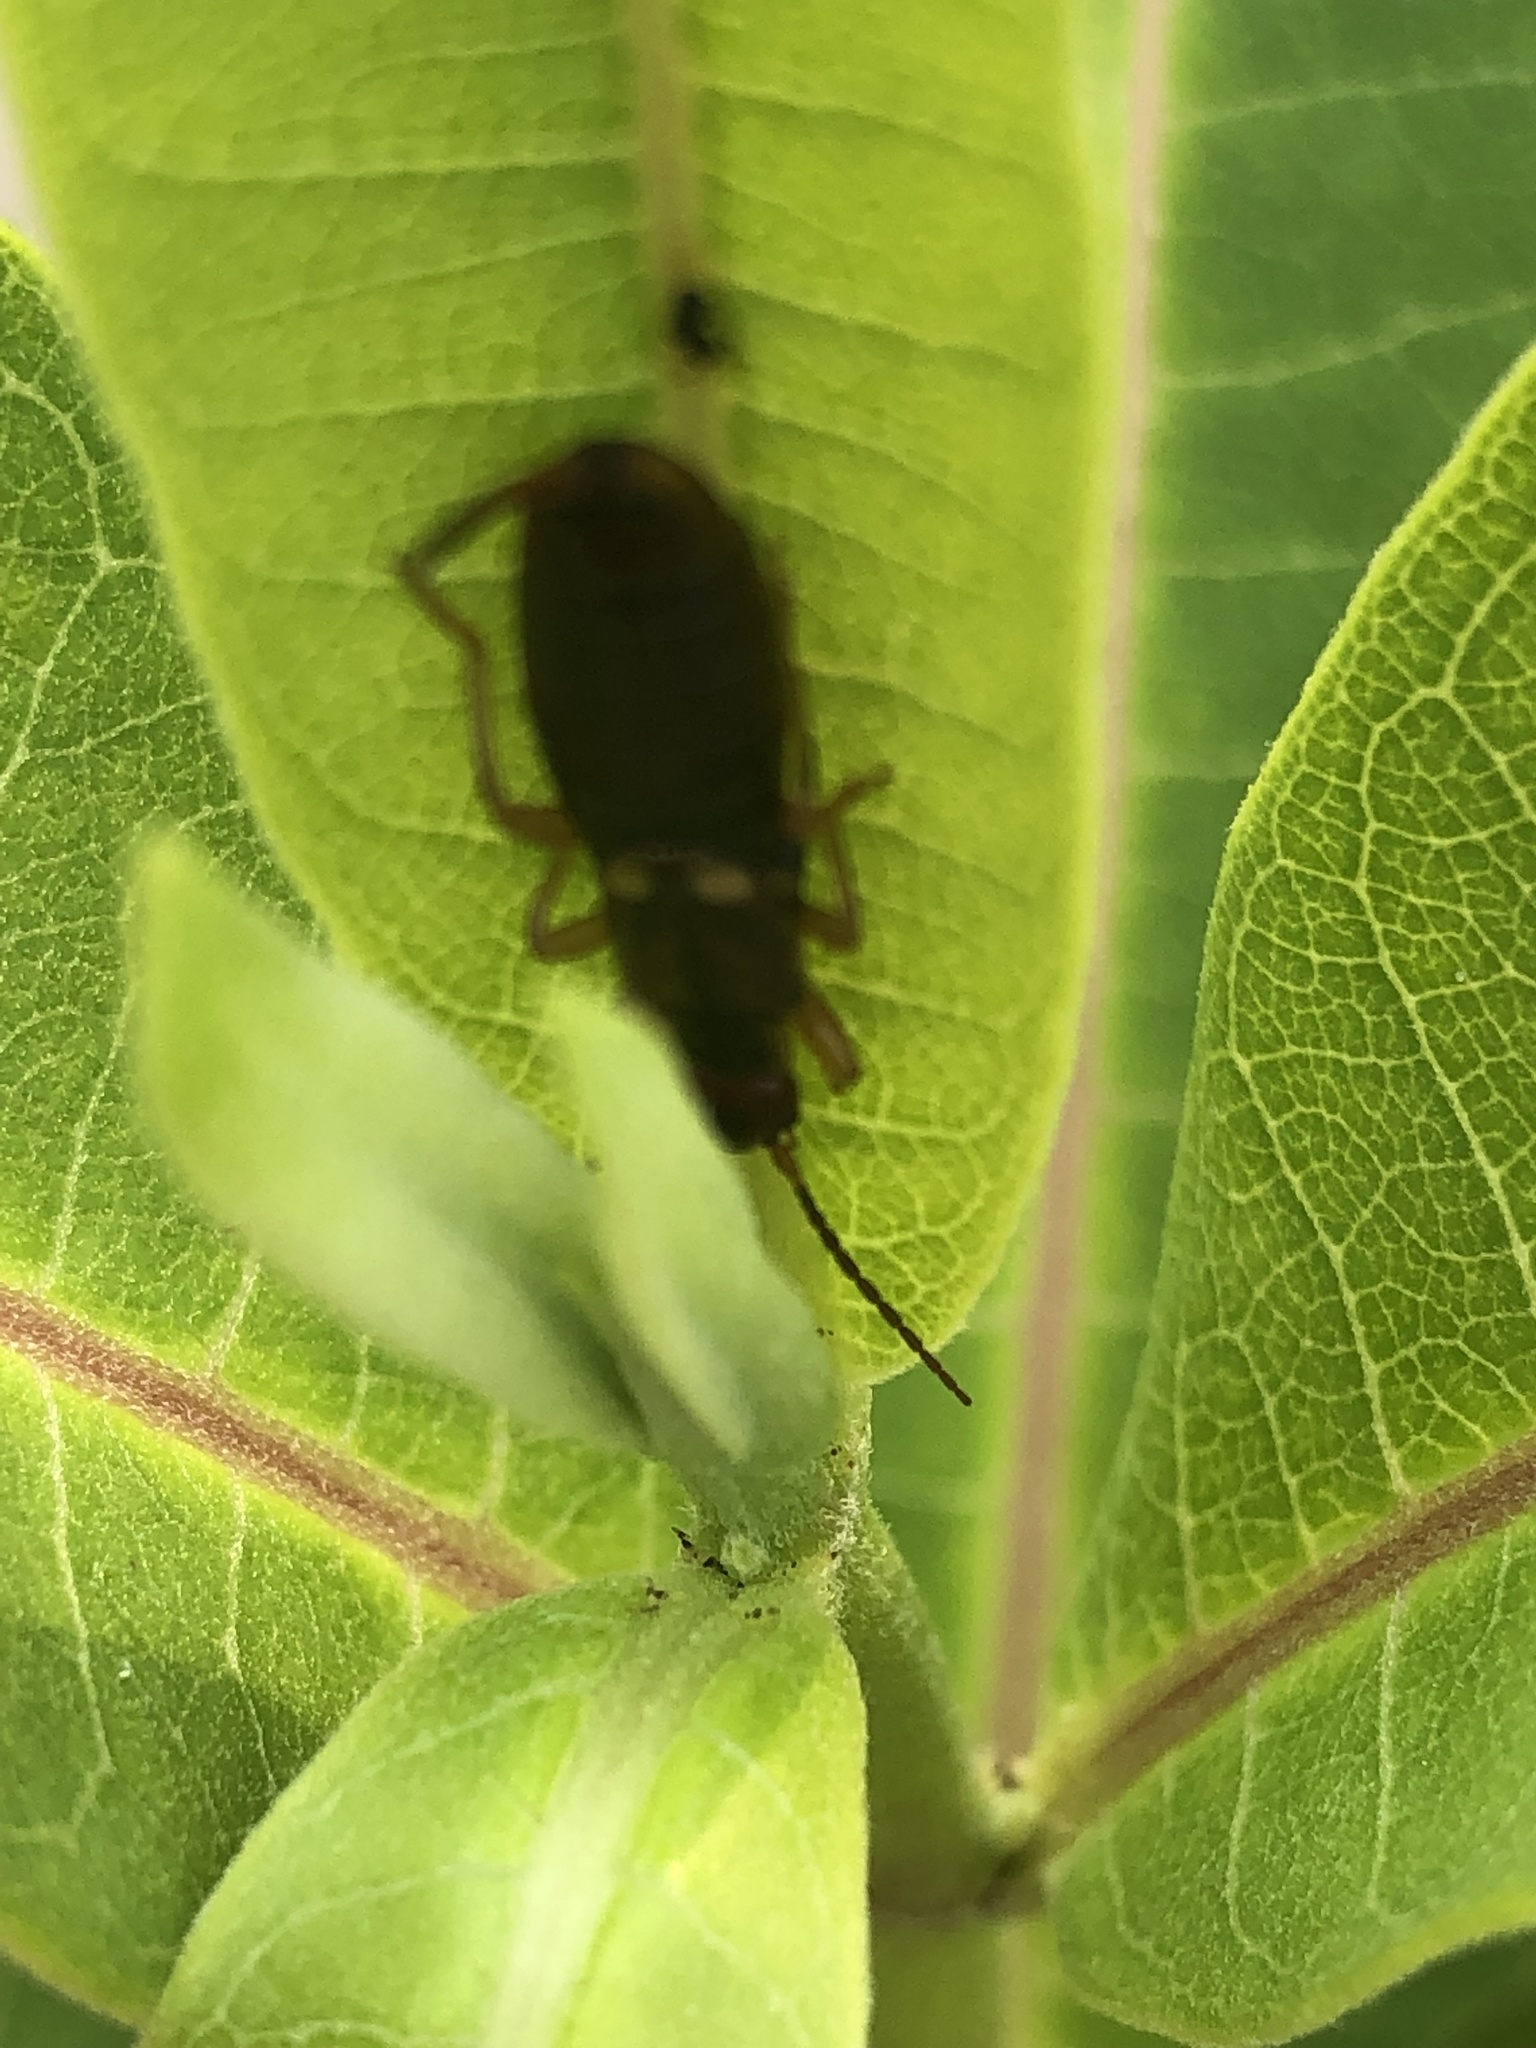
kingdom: Animalia
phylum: Arthropoda
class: Insecta
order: Dermaptera
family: Forficulidae
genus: Forficula
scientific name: Forficula
